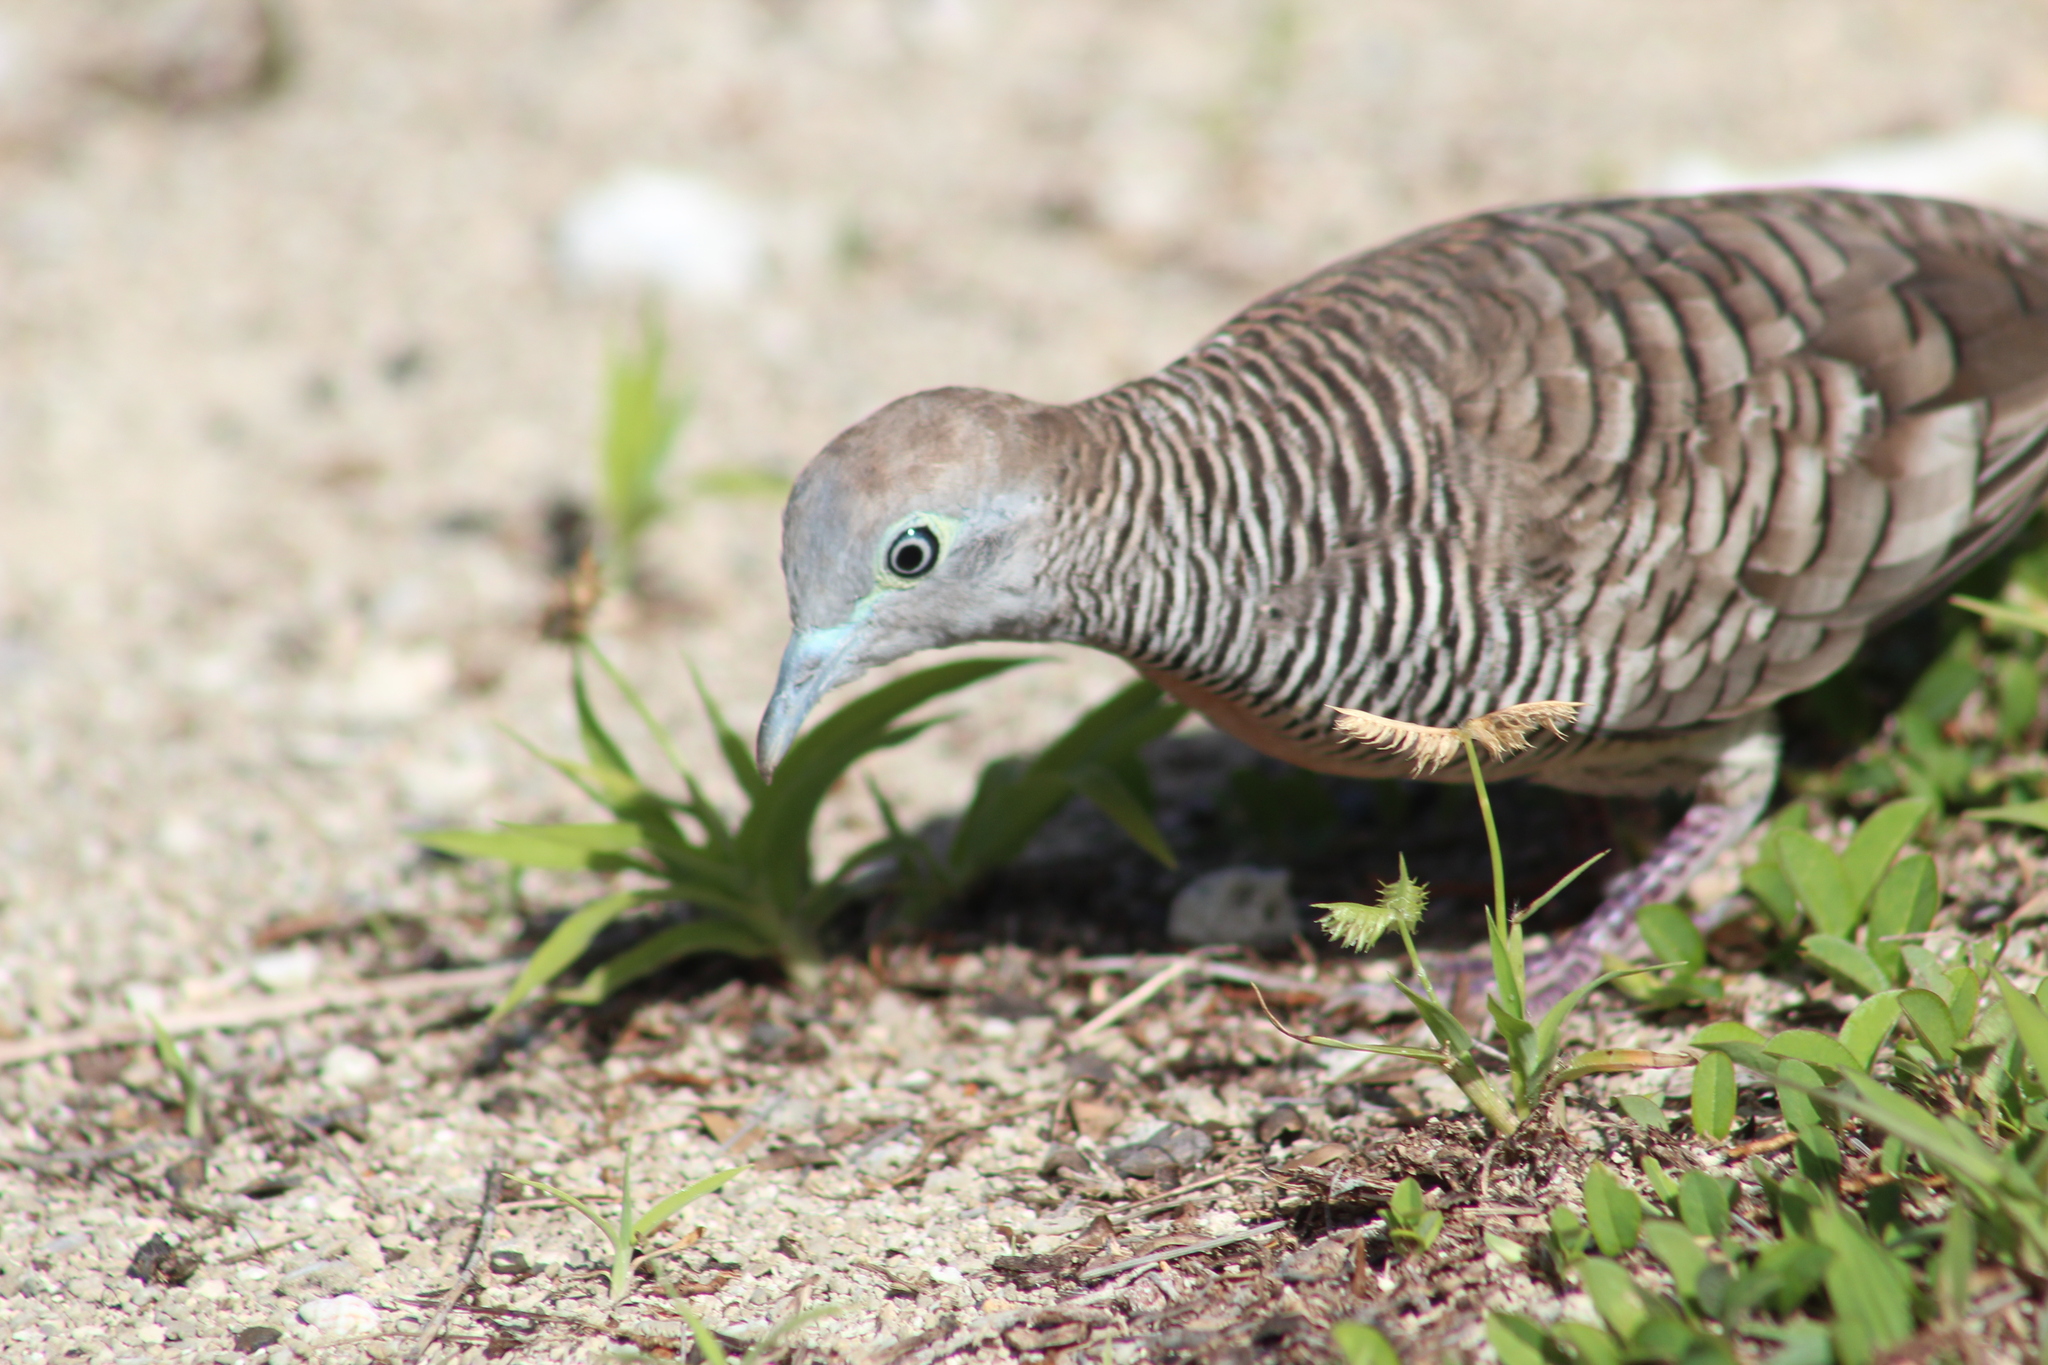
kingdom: Animalia
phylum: Chordata
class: Aves
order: Columbiformes
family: Columbidae
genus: Geopelia
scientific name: Geopelia striata
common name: Zebra dove
